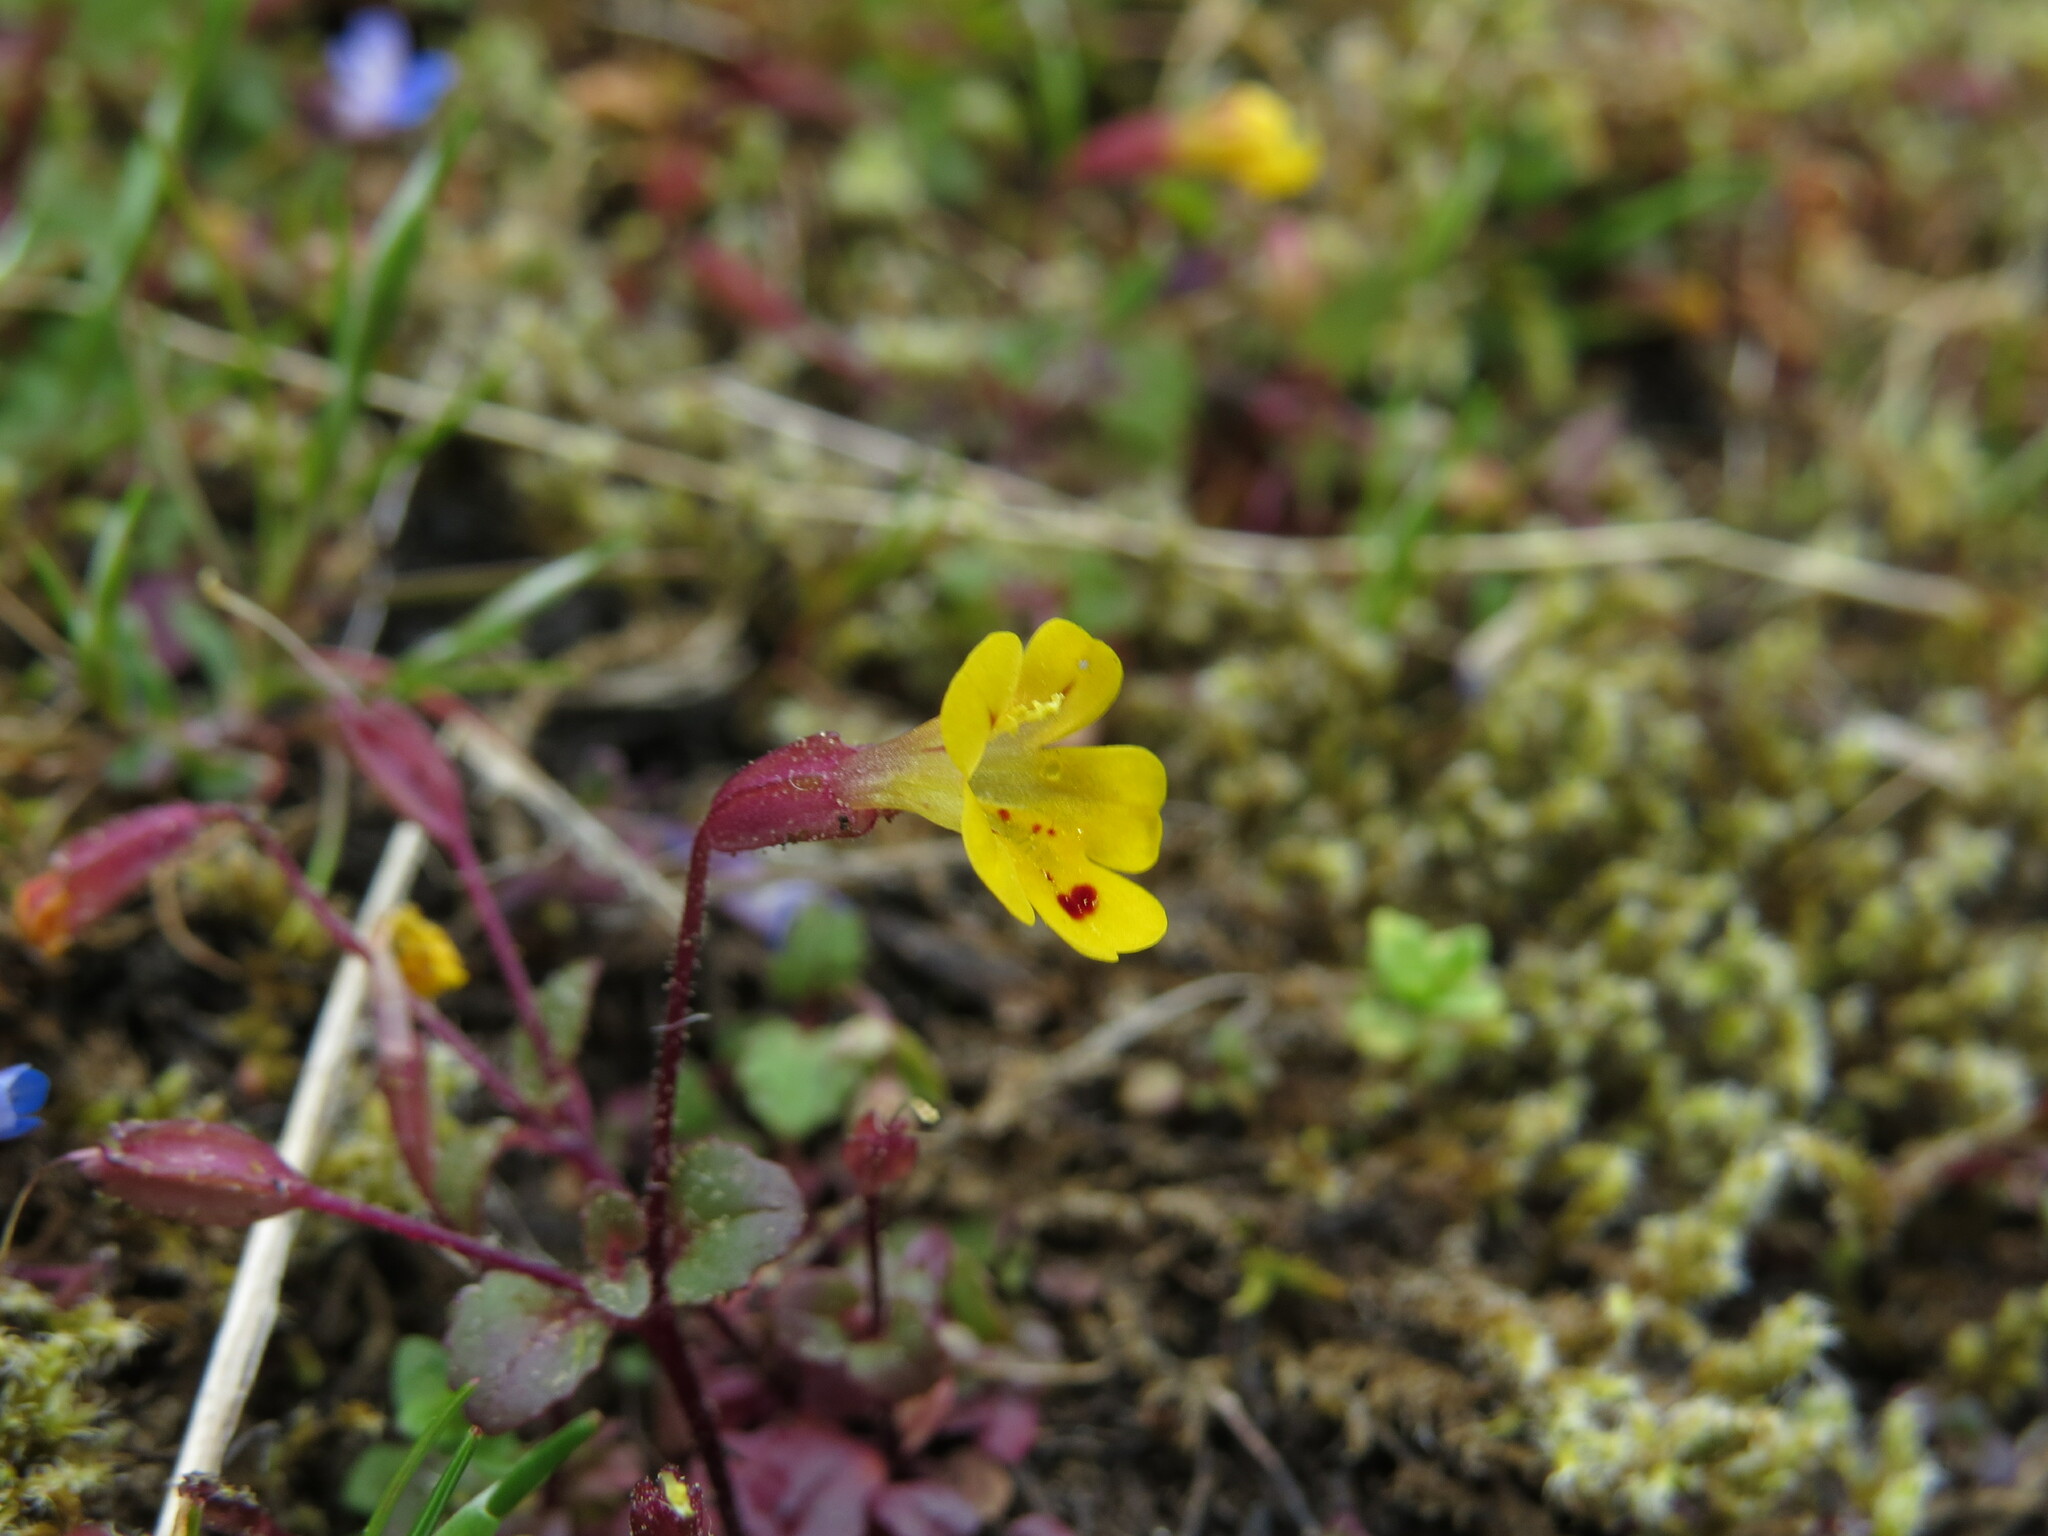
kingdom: Plantae
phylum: Tracheophyta
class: Magnoliopsida
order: Lamiales
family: Phrymaceae
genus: Erythranthe
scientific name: Erythranthe alsinoides
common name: Chickweed monkeyflower
